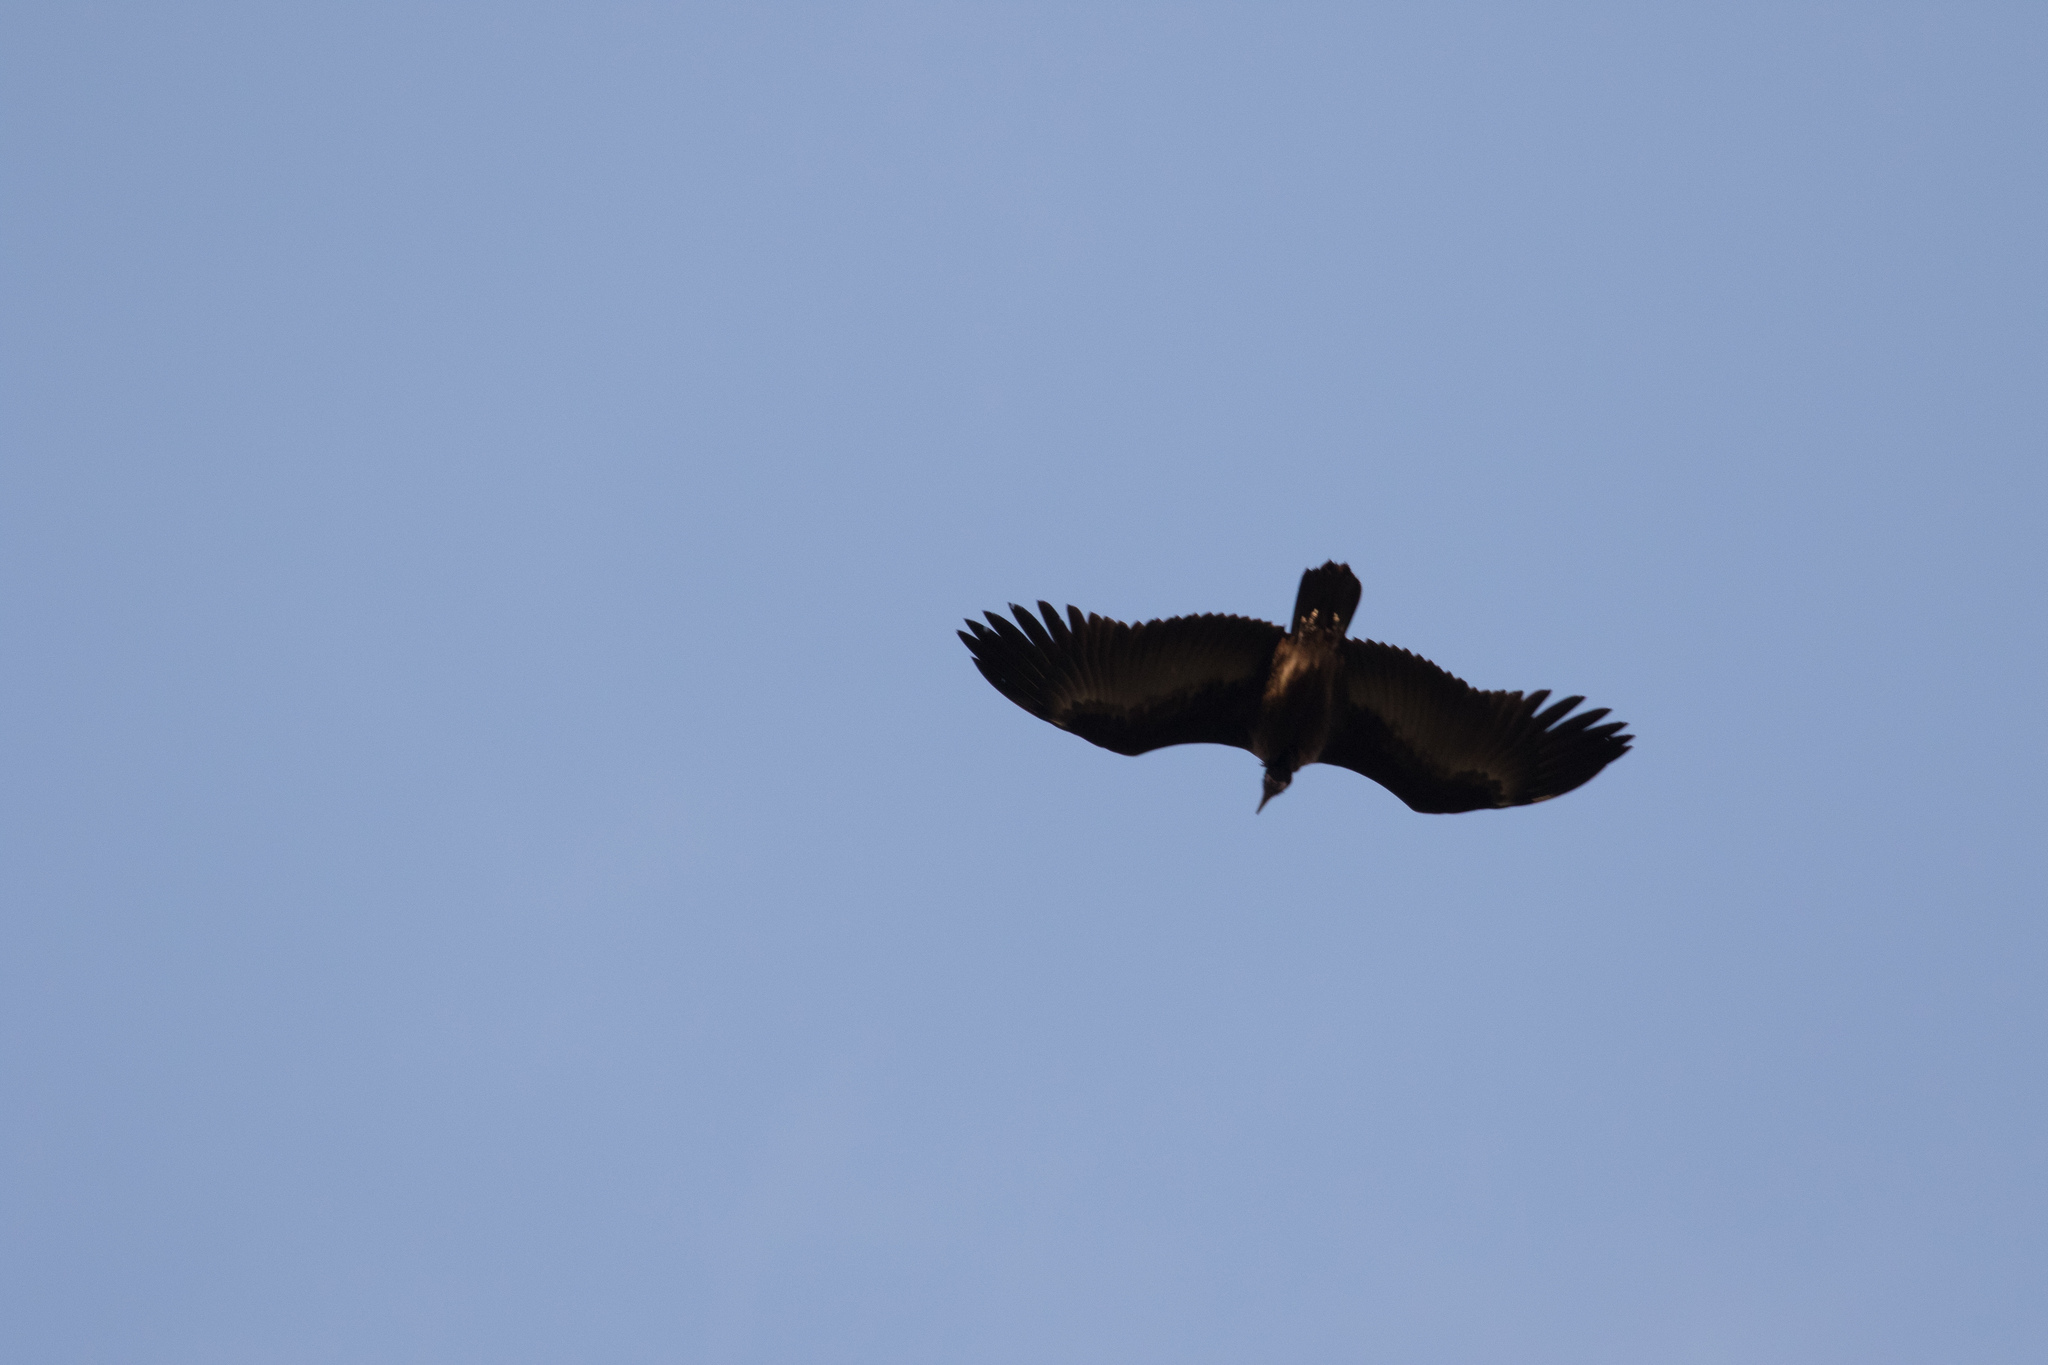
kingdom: Animalia
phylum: Chordata
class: Aves
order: Accipitriformes
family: Accipitridae
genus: Necrosyrtes
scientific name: Necrosyrtes monachus
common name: Hooded vulture
